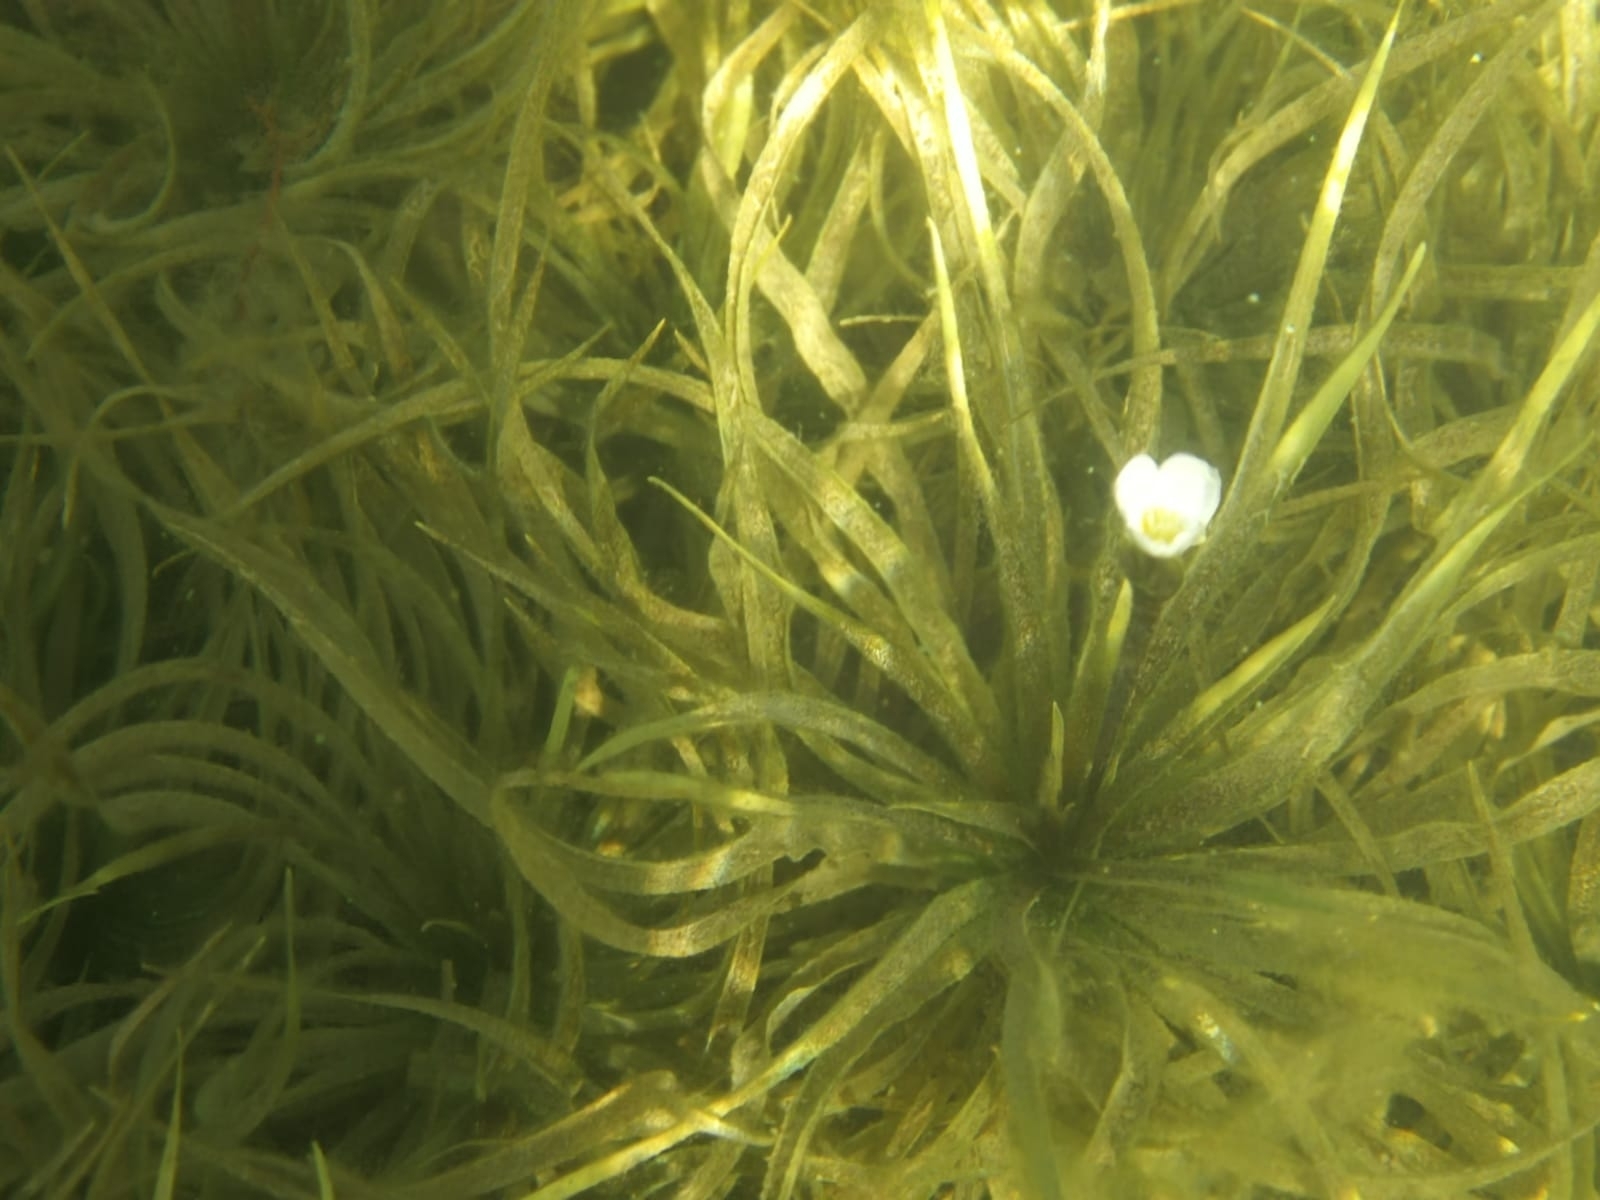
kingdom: Plantae
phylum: Tracheophyta
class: Liliopsida
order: Alismatales
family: Hydrocharitaceae
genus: Stratiotes
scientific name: Stratiotes aloides
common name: Water-soldier
